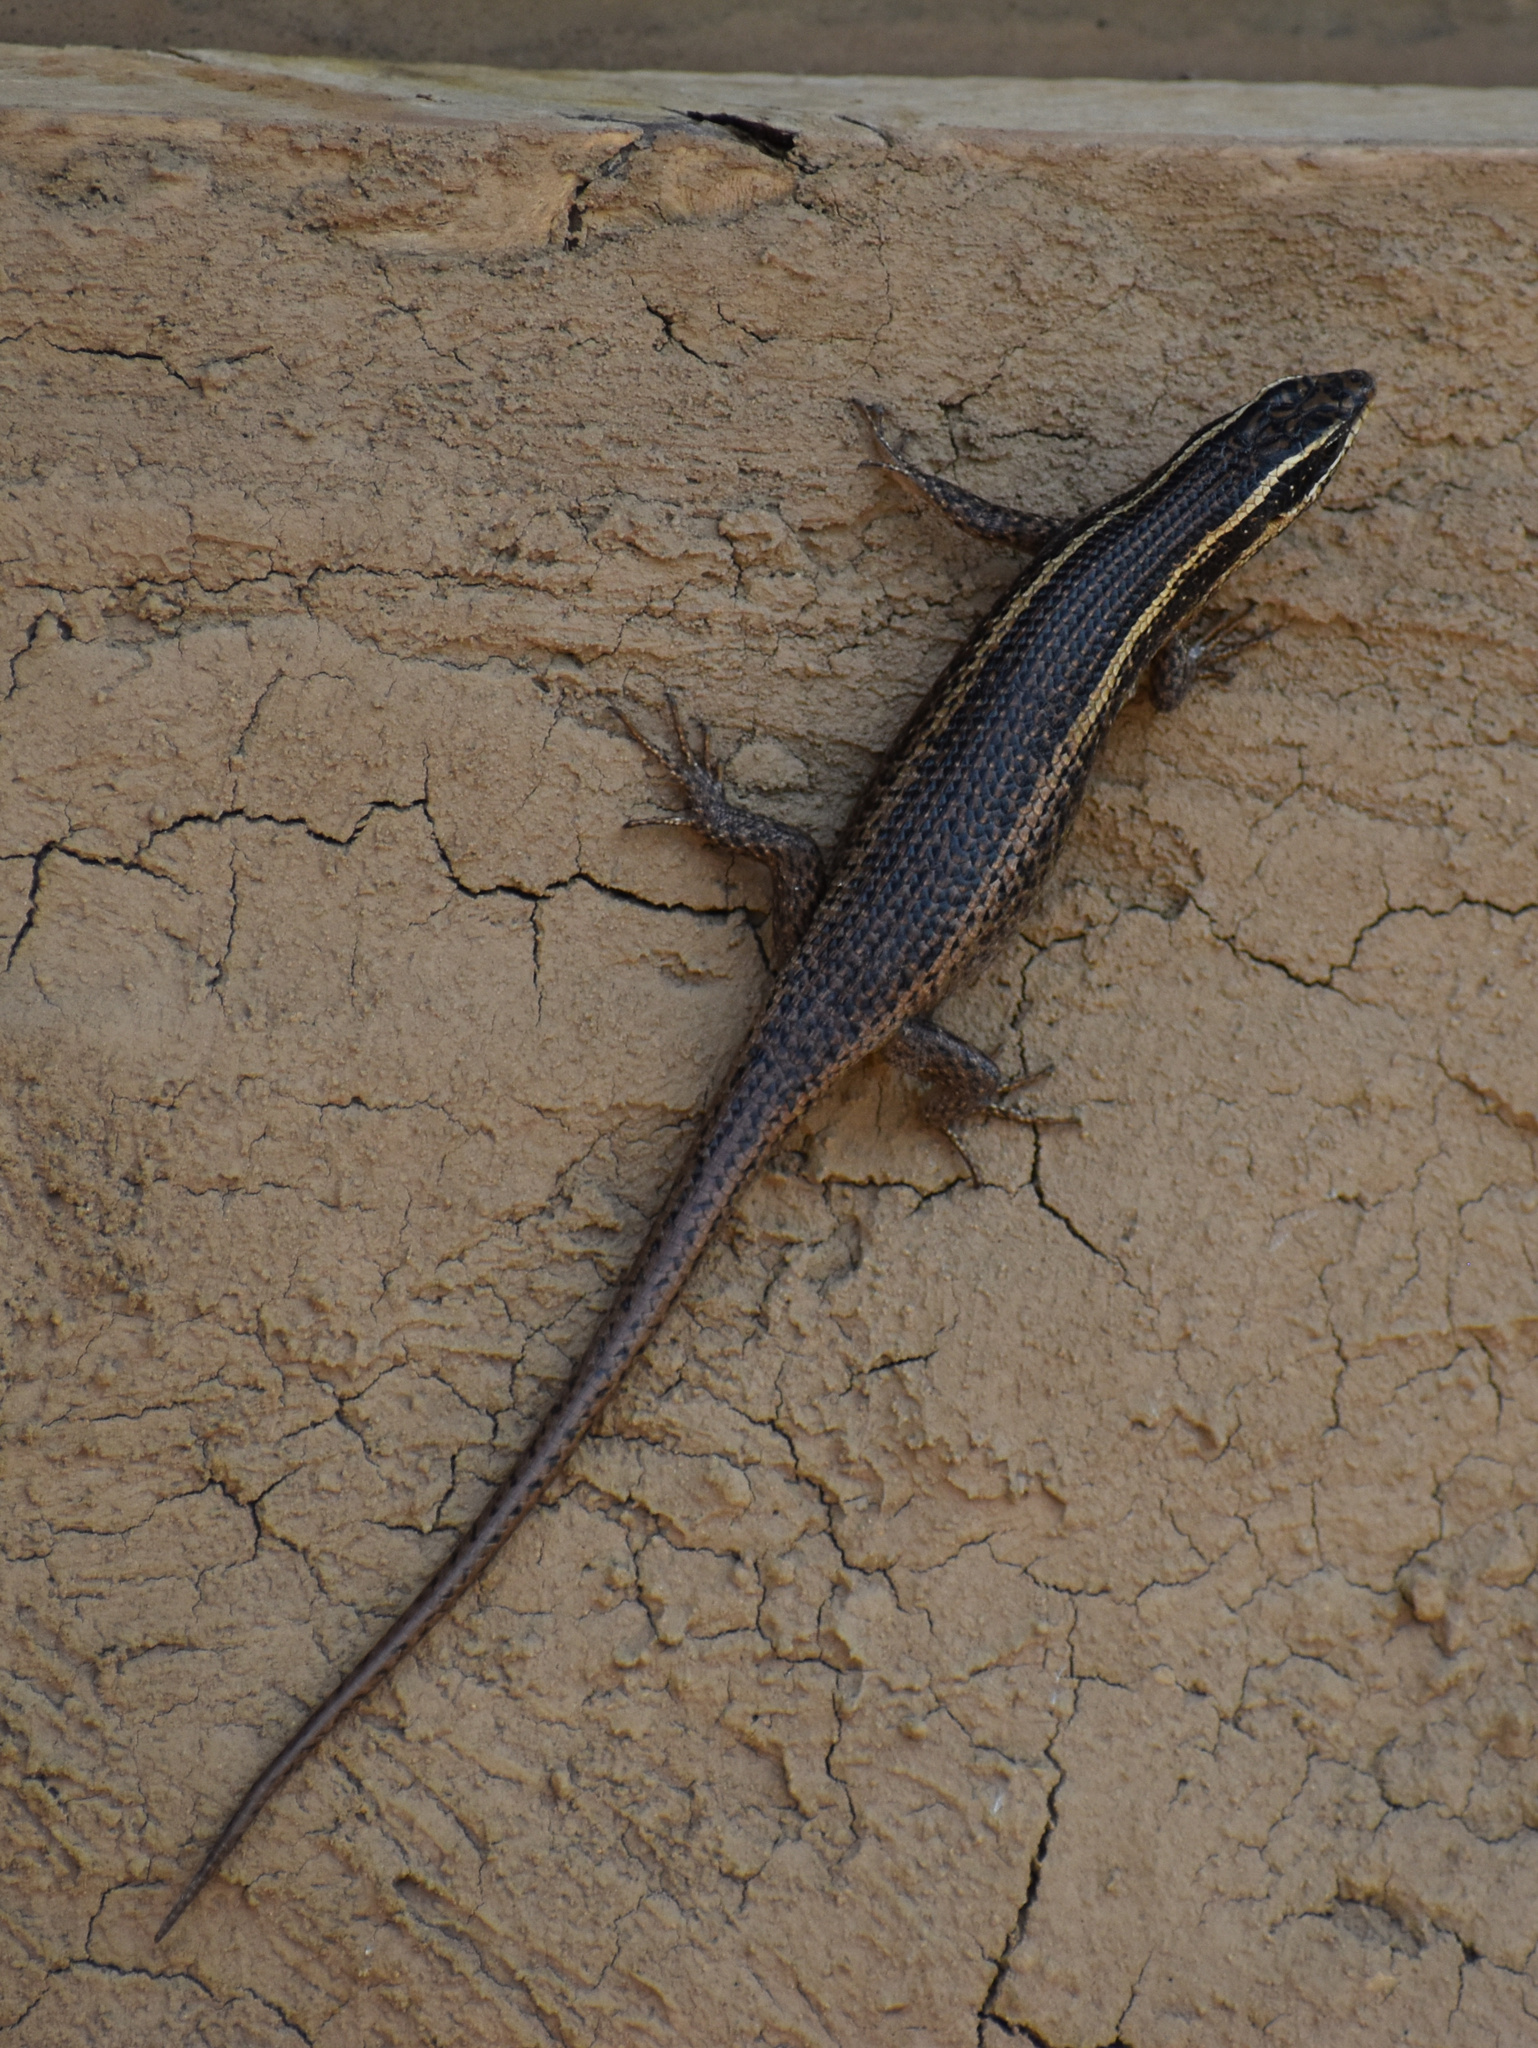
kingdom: Animalia
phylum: Chordata
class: Squamata
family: Scincidae
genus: Trachylepis
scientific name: Trachylepis punctatissima
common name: Montane speckled skink
